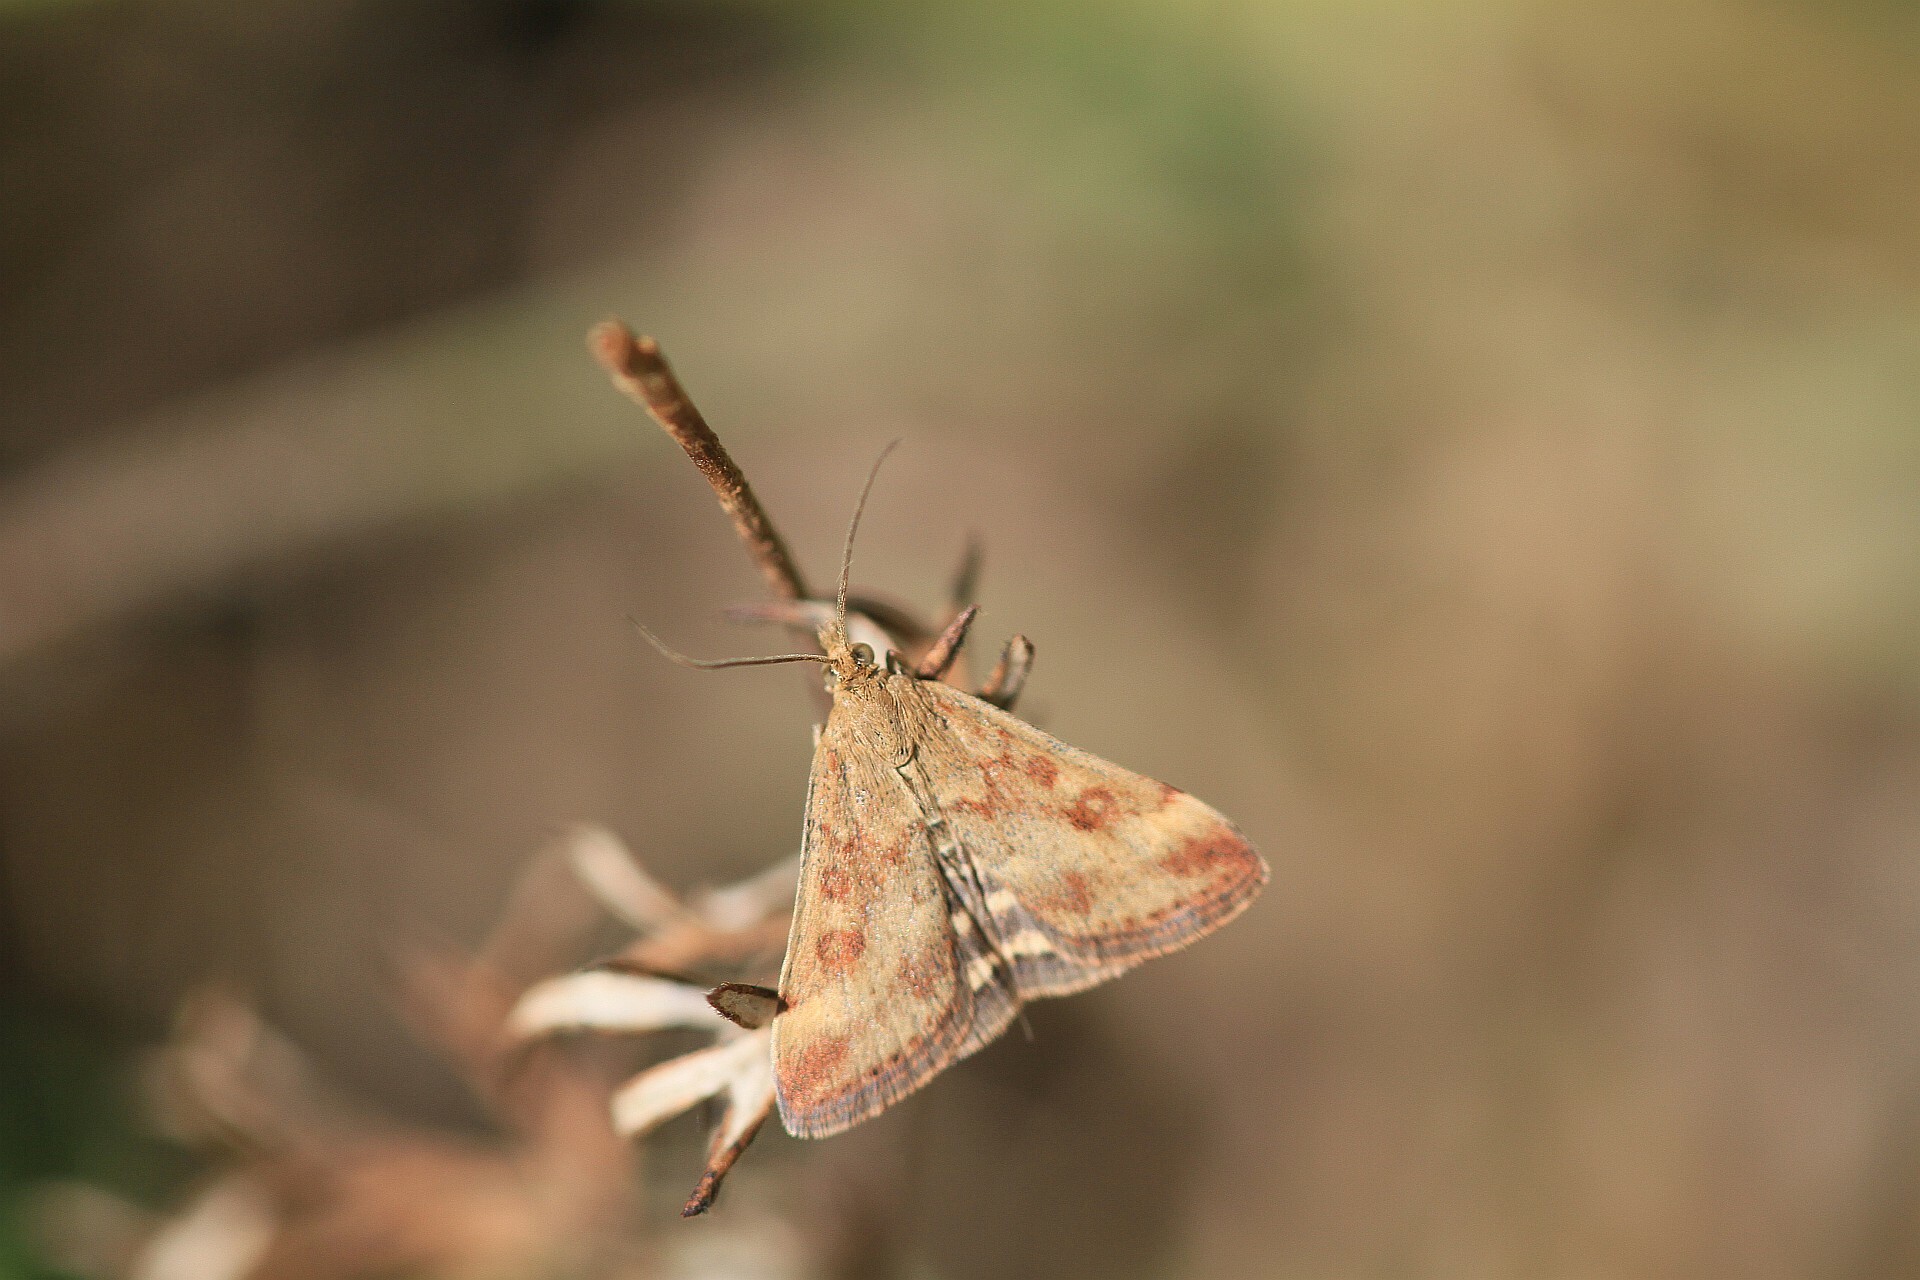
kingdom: Animalia
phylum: Arthropoda
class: Insecta
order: Lepidoptera
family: Crambidae
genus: Pyrausta
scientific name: Pyrausta despicata
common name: Straw-barred pearl
